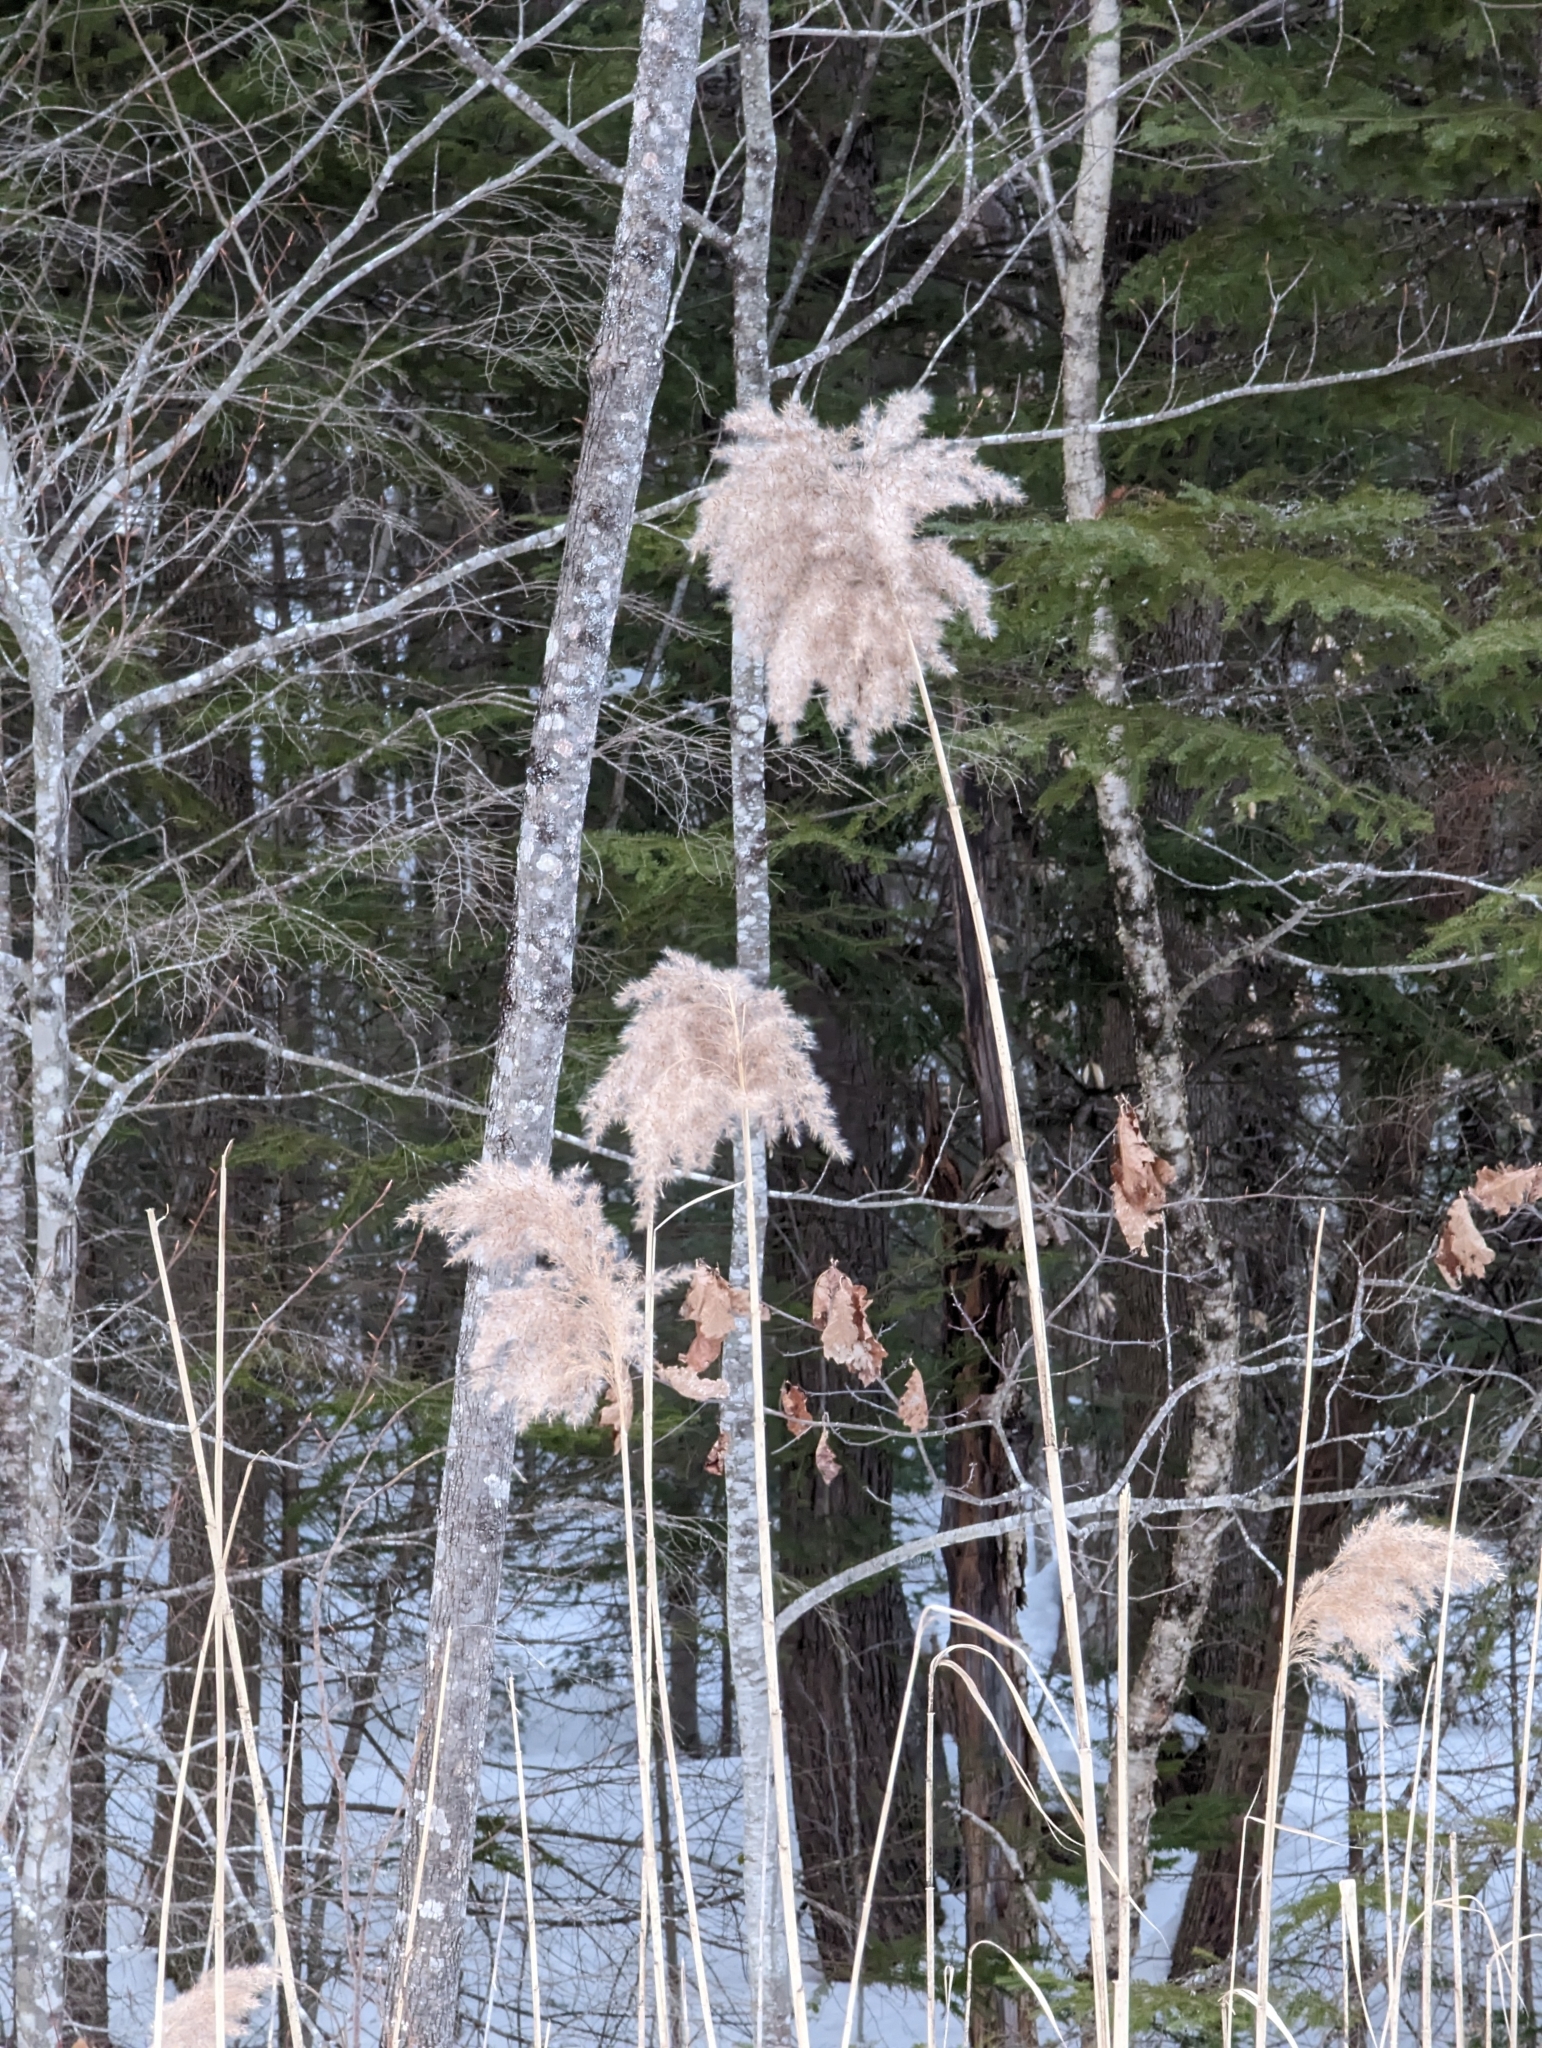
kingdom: Plantae
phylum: Tracheophyta
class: Liliopsida
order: Poales
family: Poaceae
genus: Phragmites
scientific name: Phragmites australis
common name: Common reed
